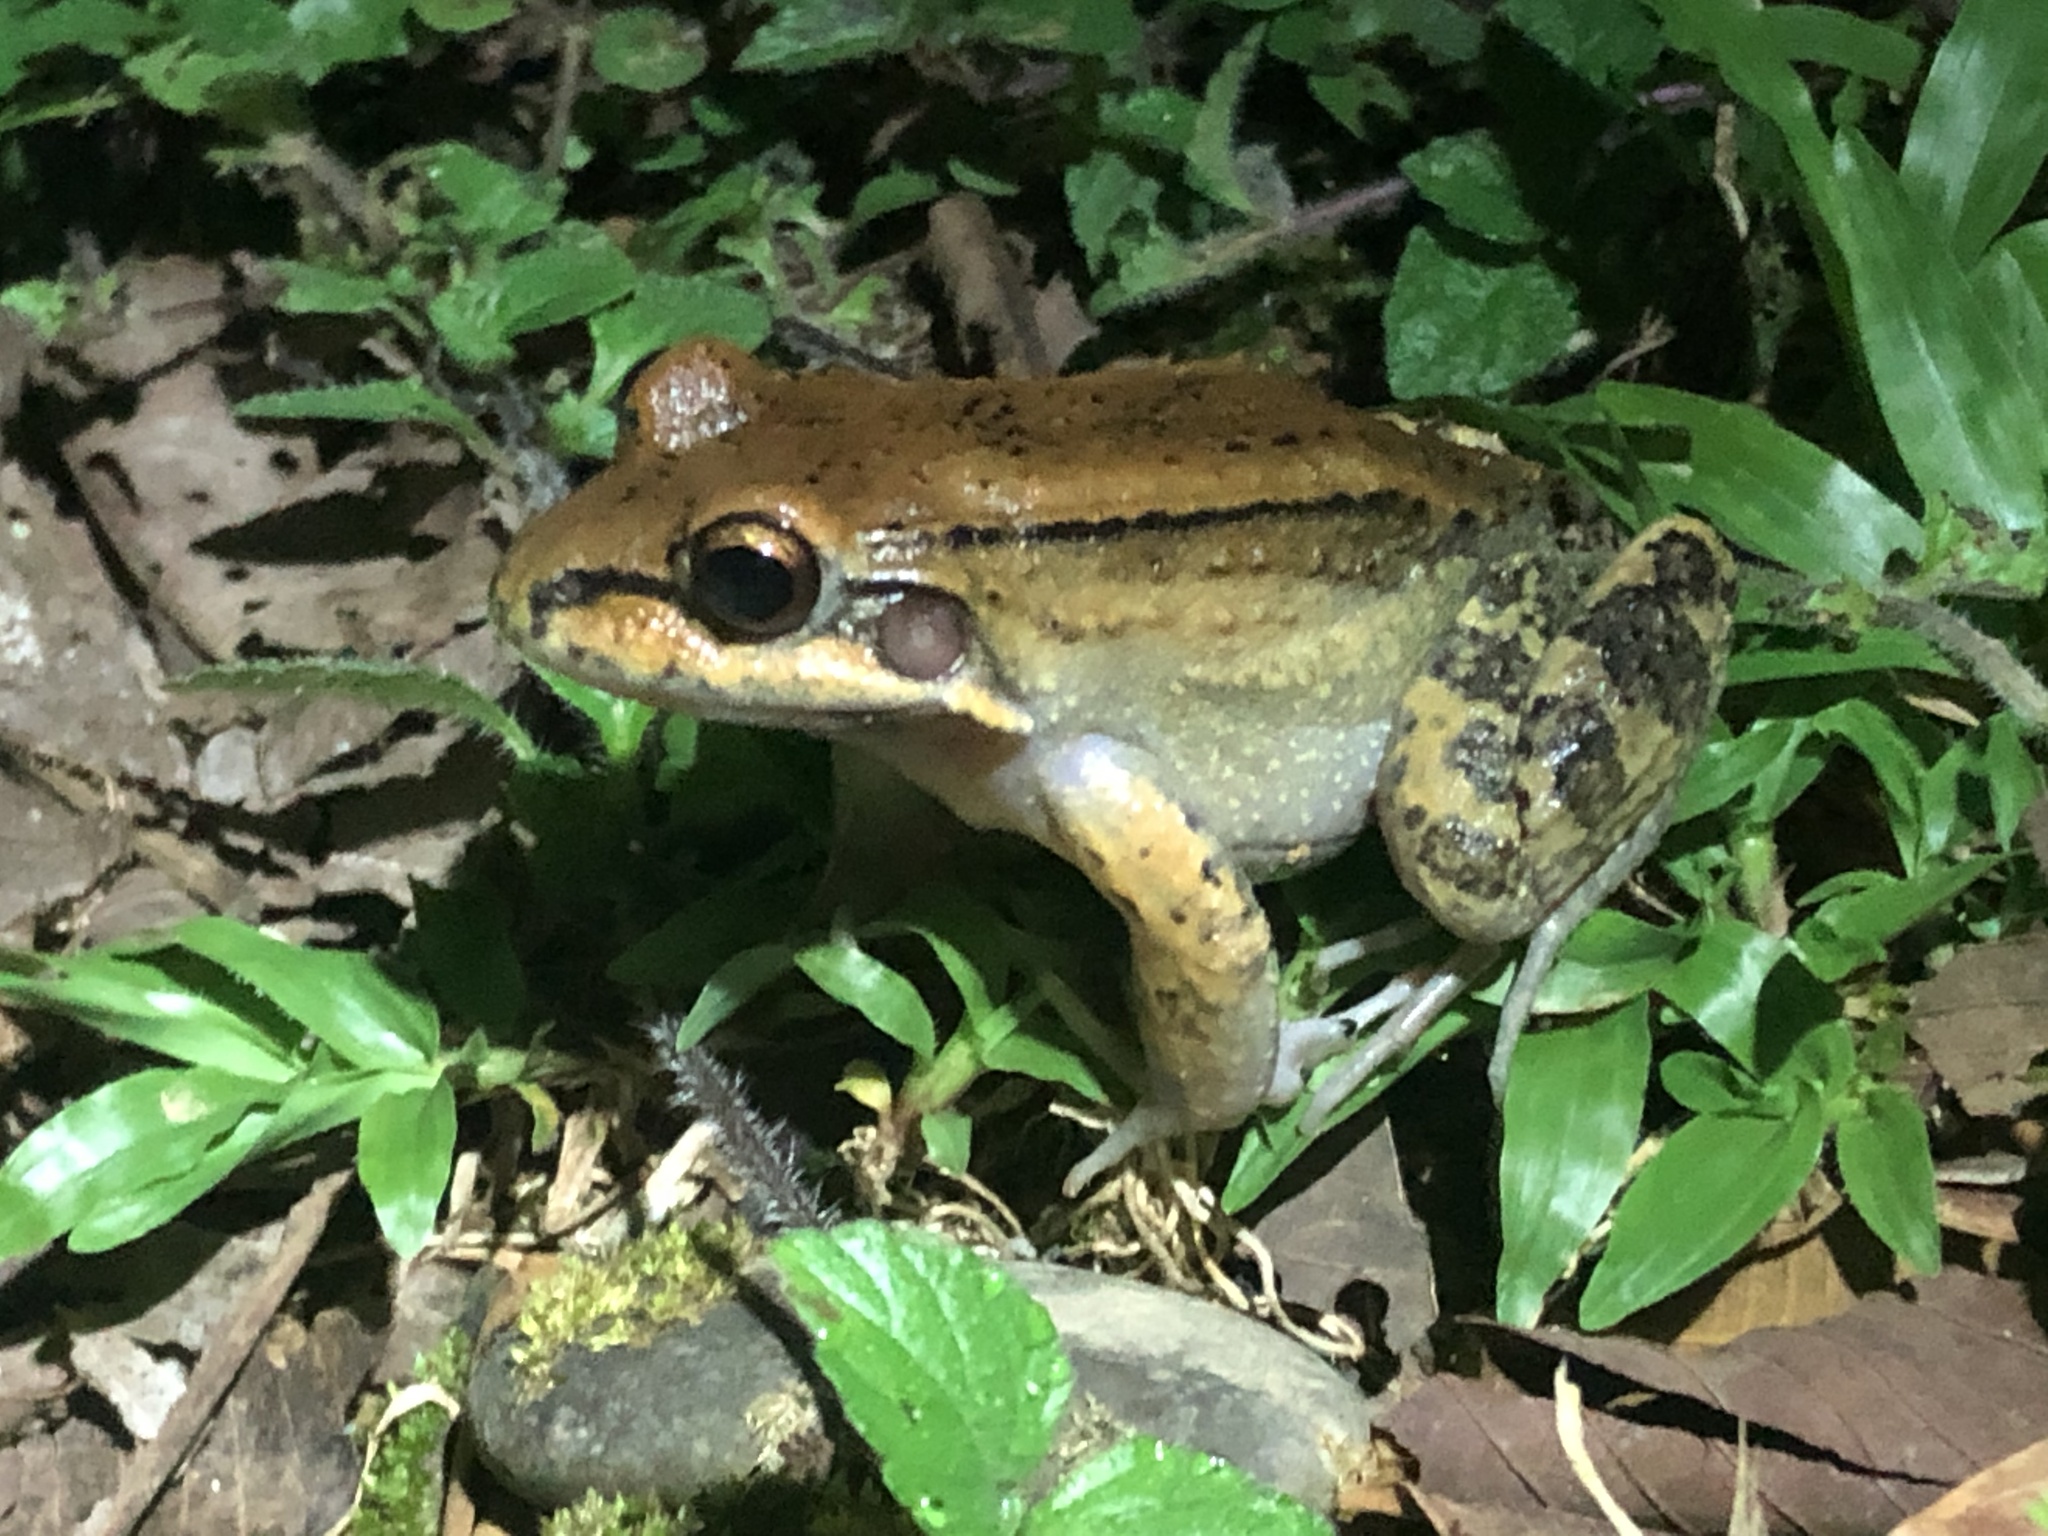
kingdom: Animalia
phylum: Chordata
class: Amphibia
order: Anura
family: Leptodactylidae
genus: Leptodactylus
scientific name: Leptodactylus rhodonotus
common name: Peru white-lipped frog
